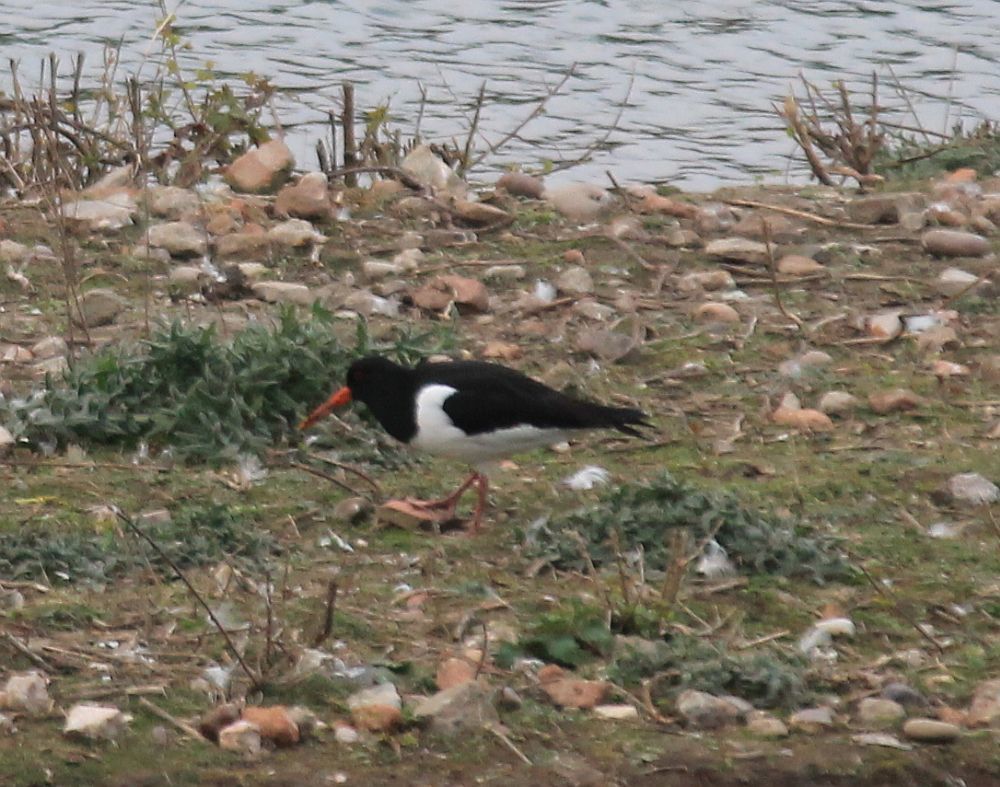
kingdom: Animalia
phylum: Chordata
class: Aves
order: Charadriiformes
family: Haematopodidae
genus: Haematopus
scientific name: Haematopus ostralegus
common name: Eurasian oystercatcher
